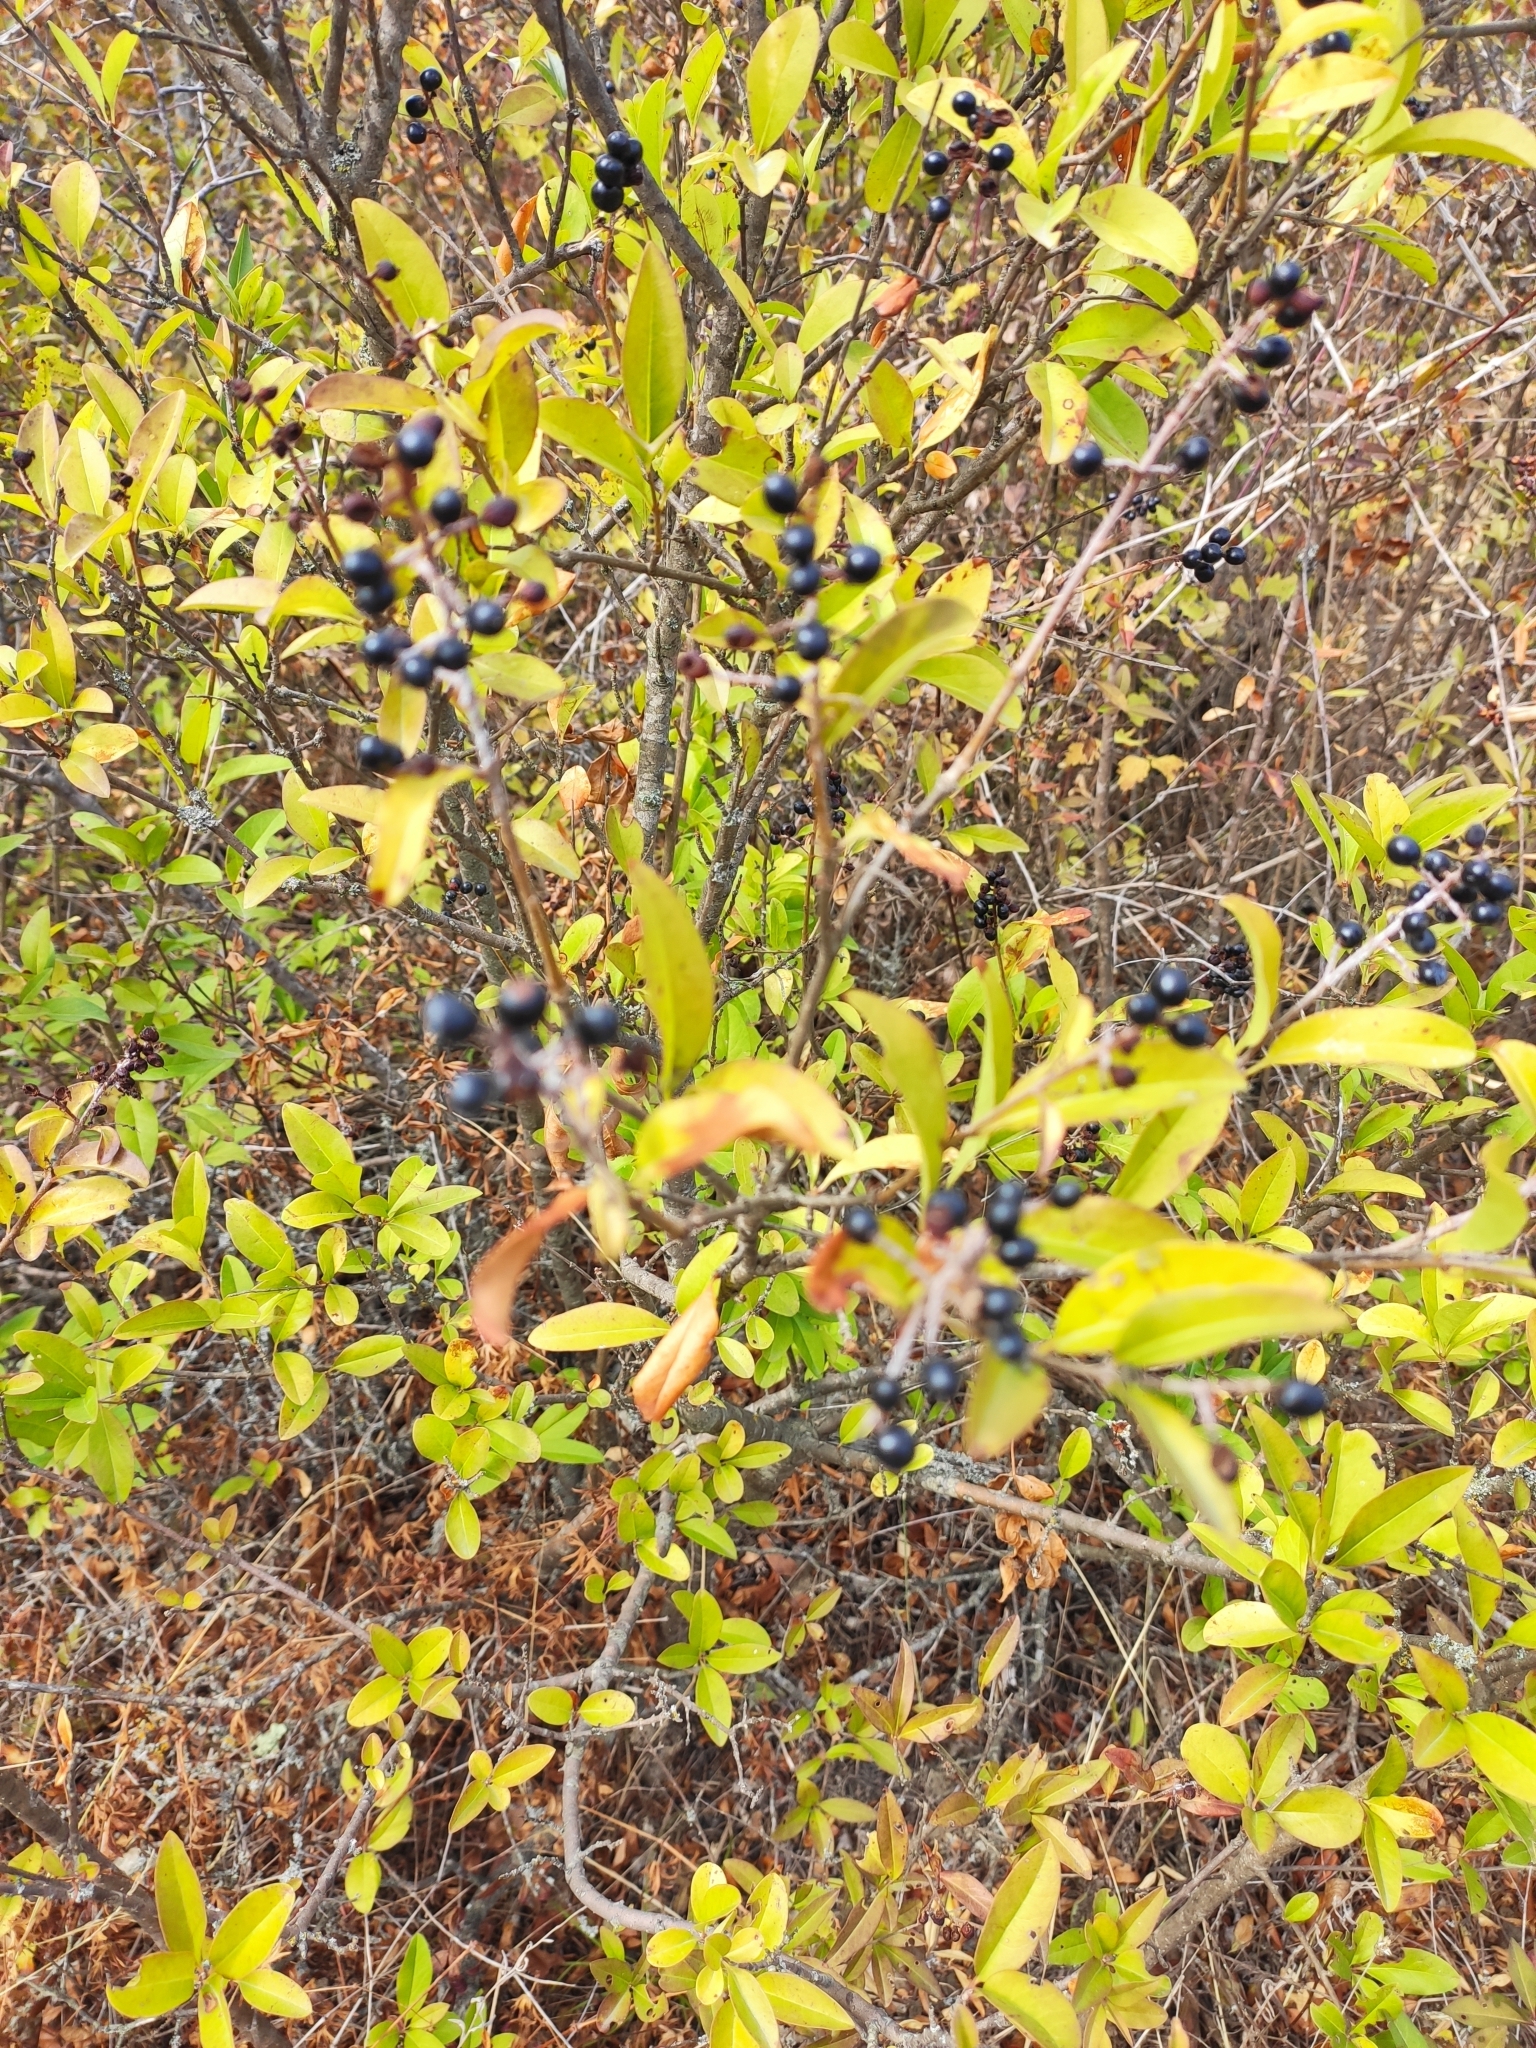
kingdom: Plantae
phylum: Tracheophyta
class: Magnoliopsida
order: Lamiales
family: Oleaceae
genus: Ligustrum
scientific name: Ligustrum vulgare
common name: Wild privet
